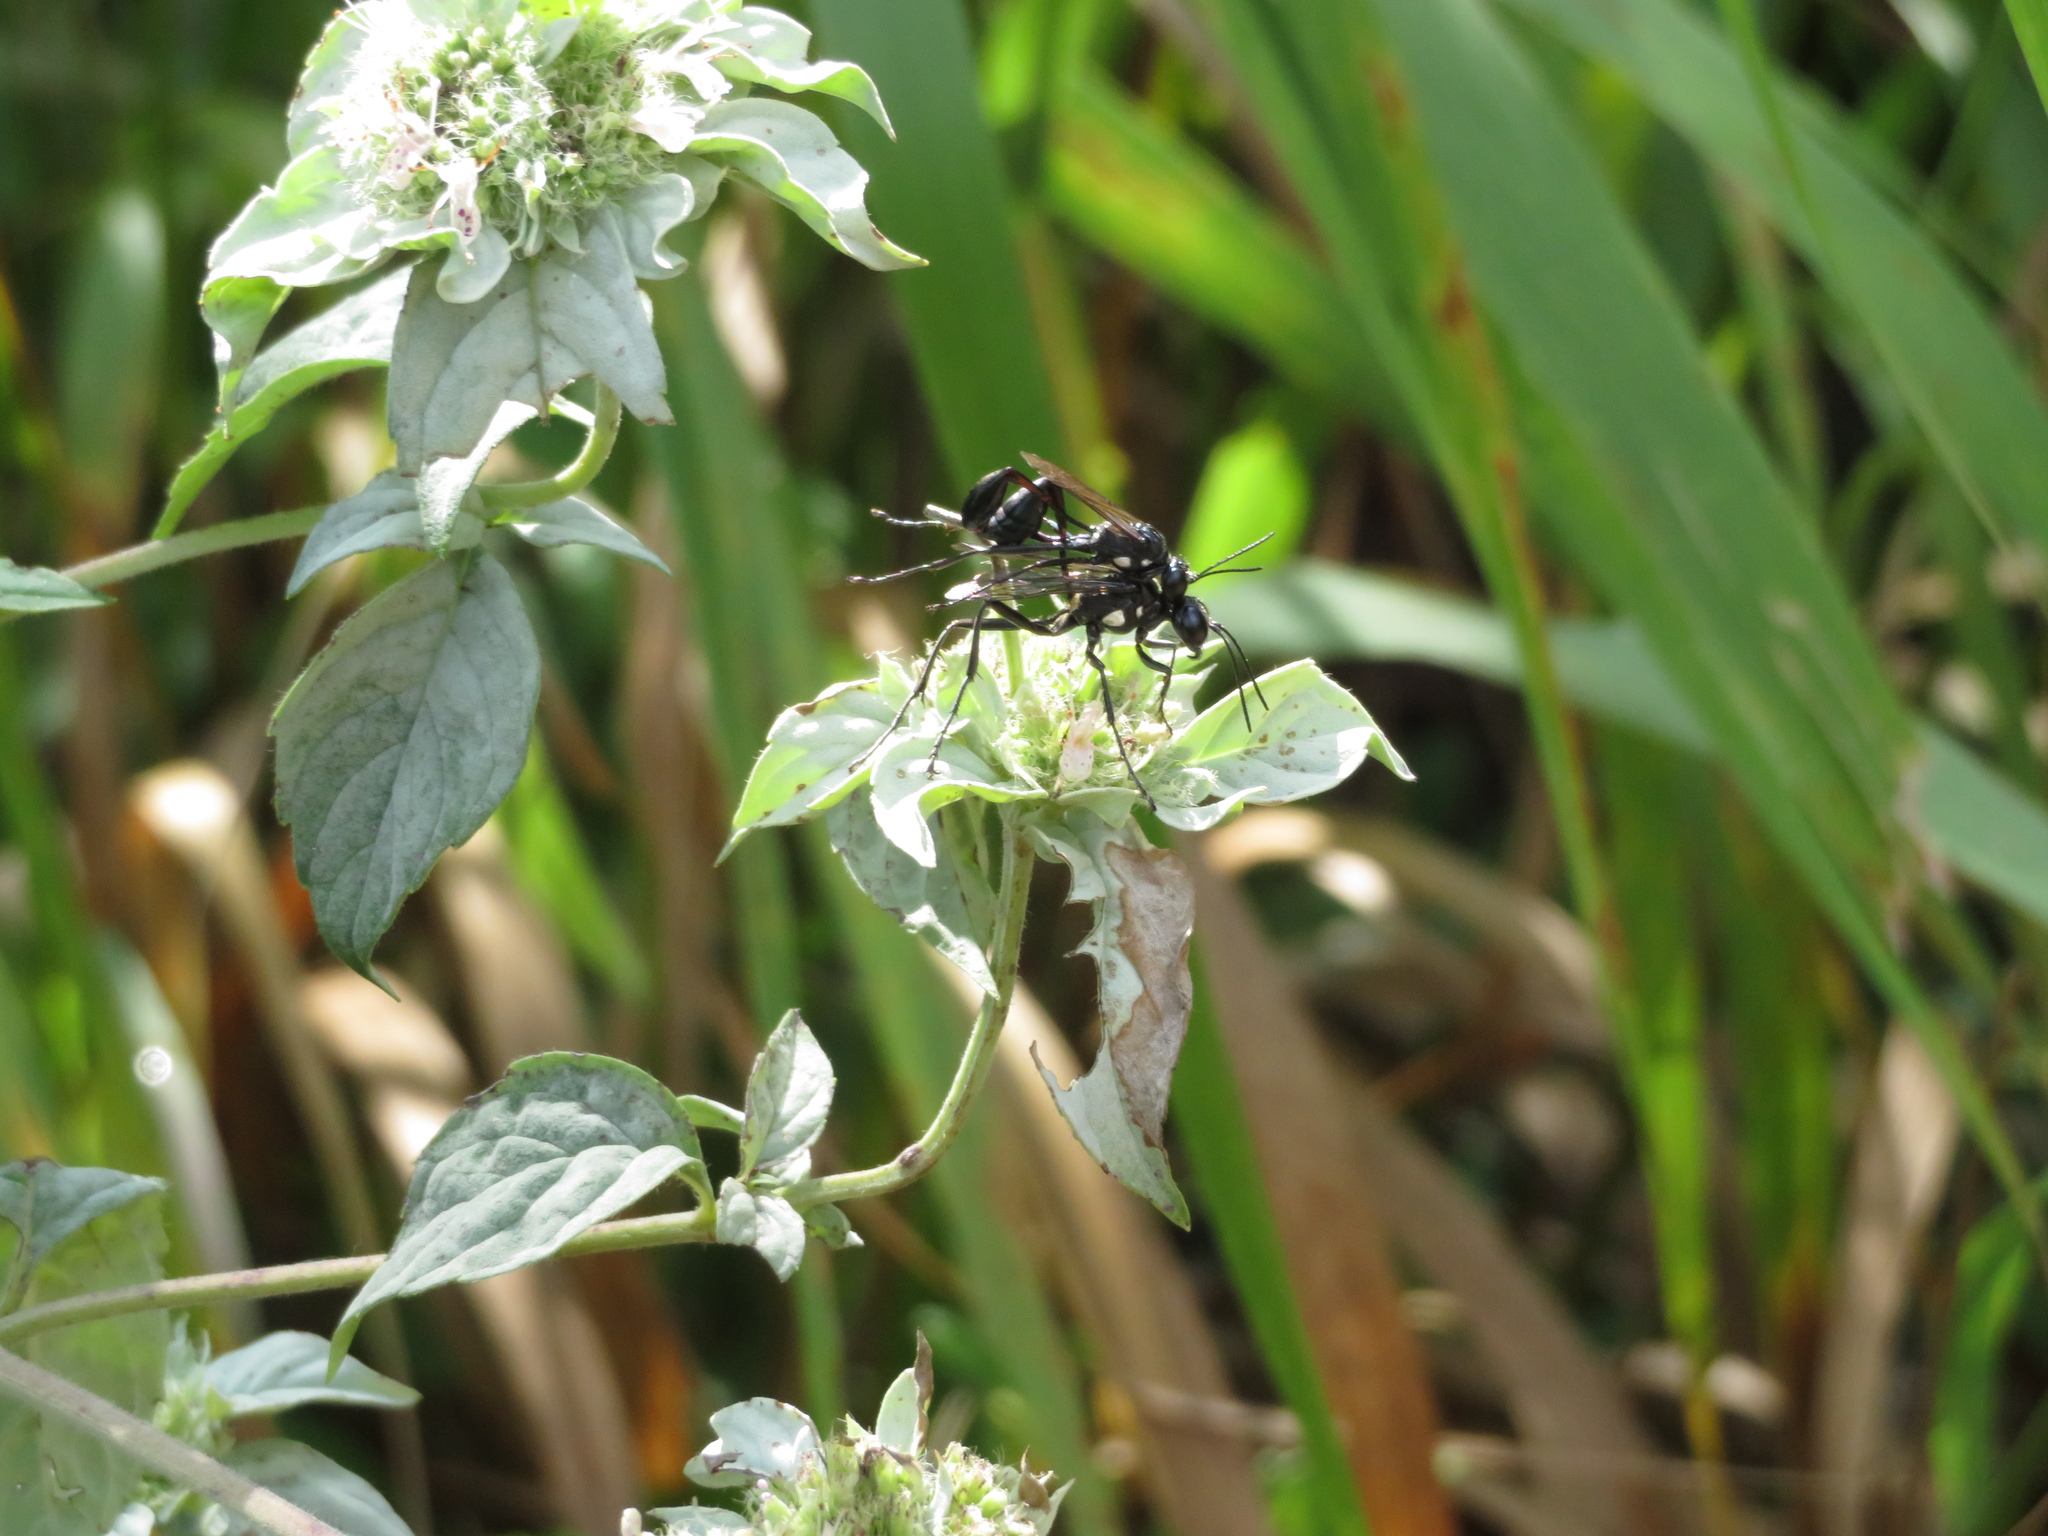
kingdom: Animalia
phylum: Arthropoda
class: Insecta
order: Hymenoptera
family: Sphecidae
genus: Eremnophila
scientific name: Eremnophila aureonotata
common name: Gold-marked thread-waisted wasp
